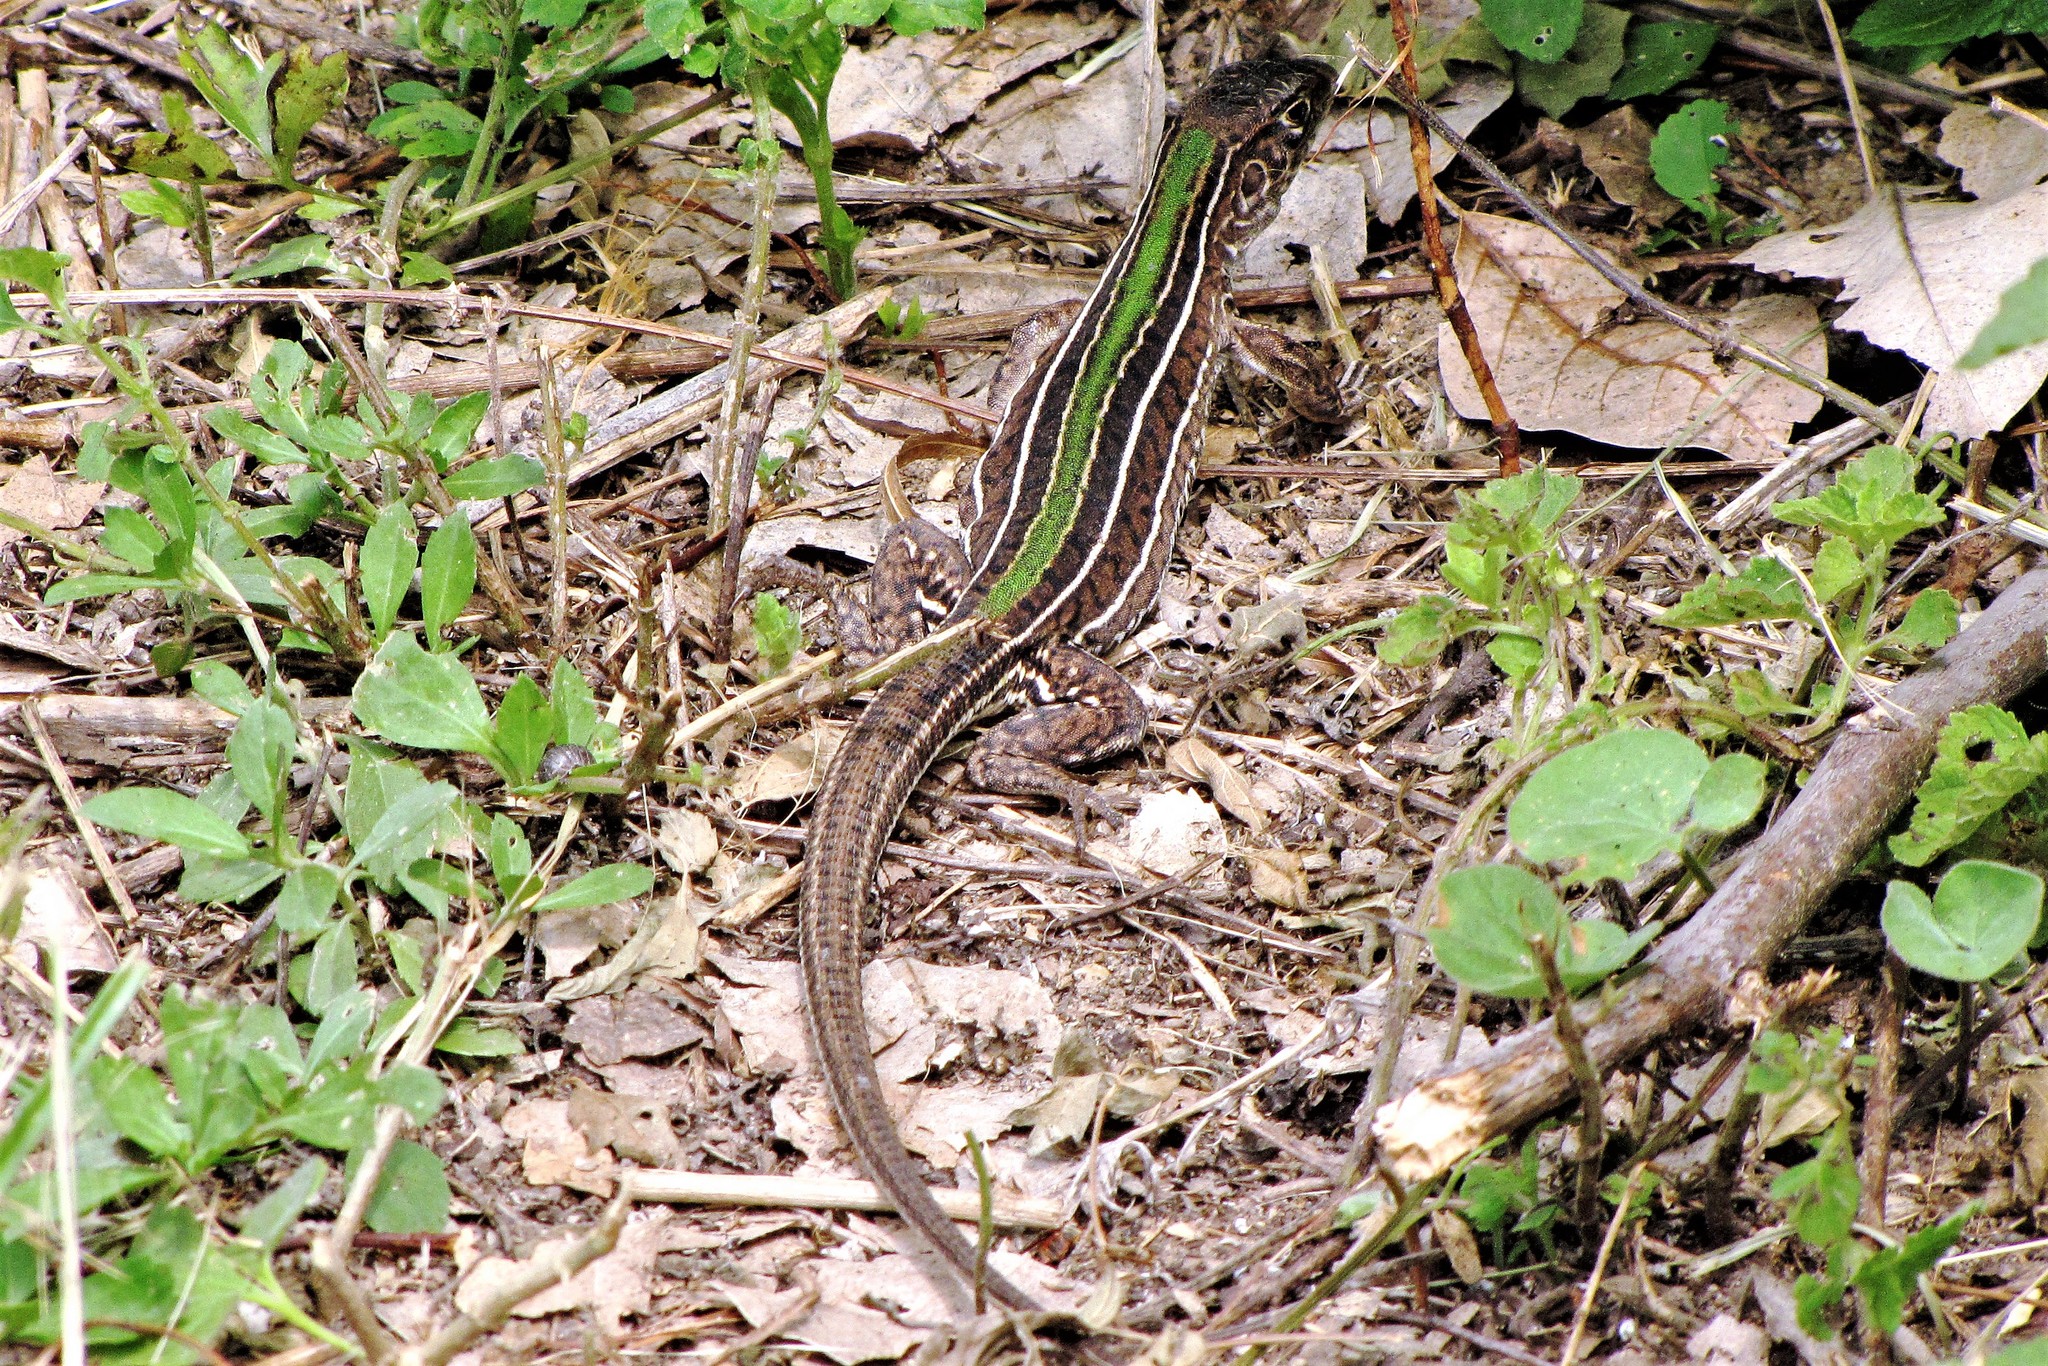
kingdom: Animalia
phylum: Chordata
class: Squamata
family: Teiidae
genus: Teius
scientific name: Teius oculatus
